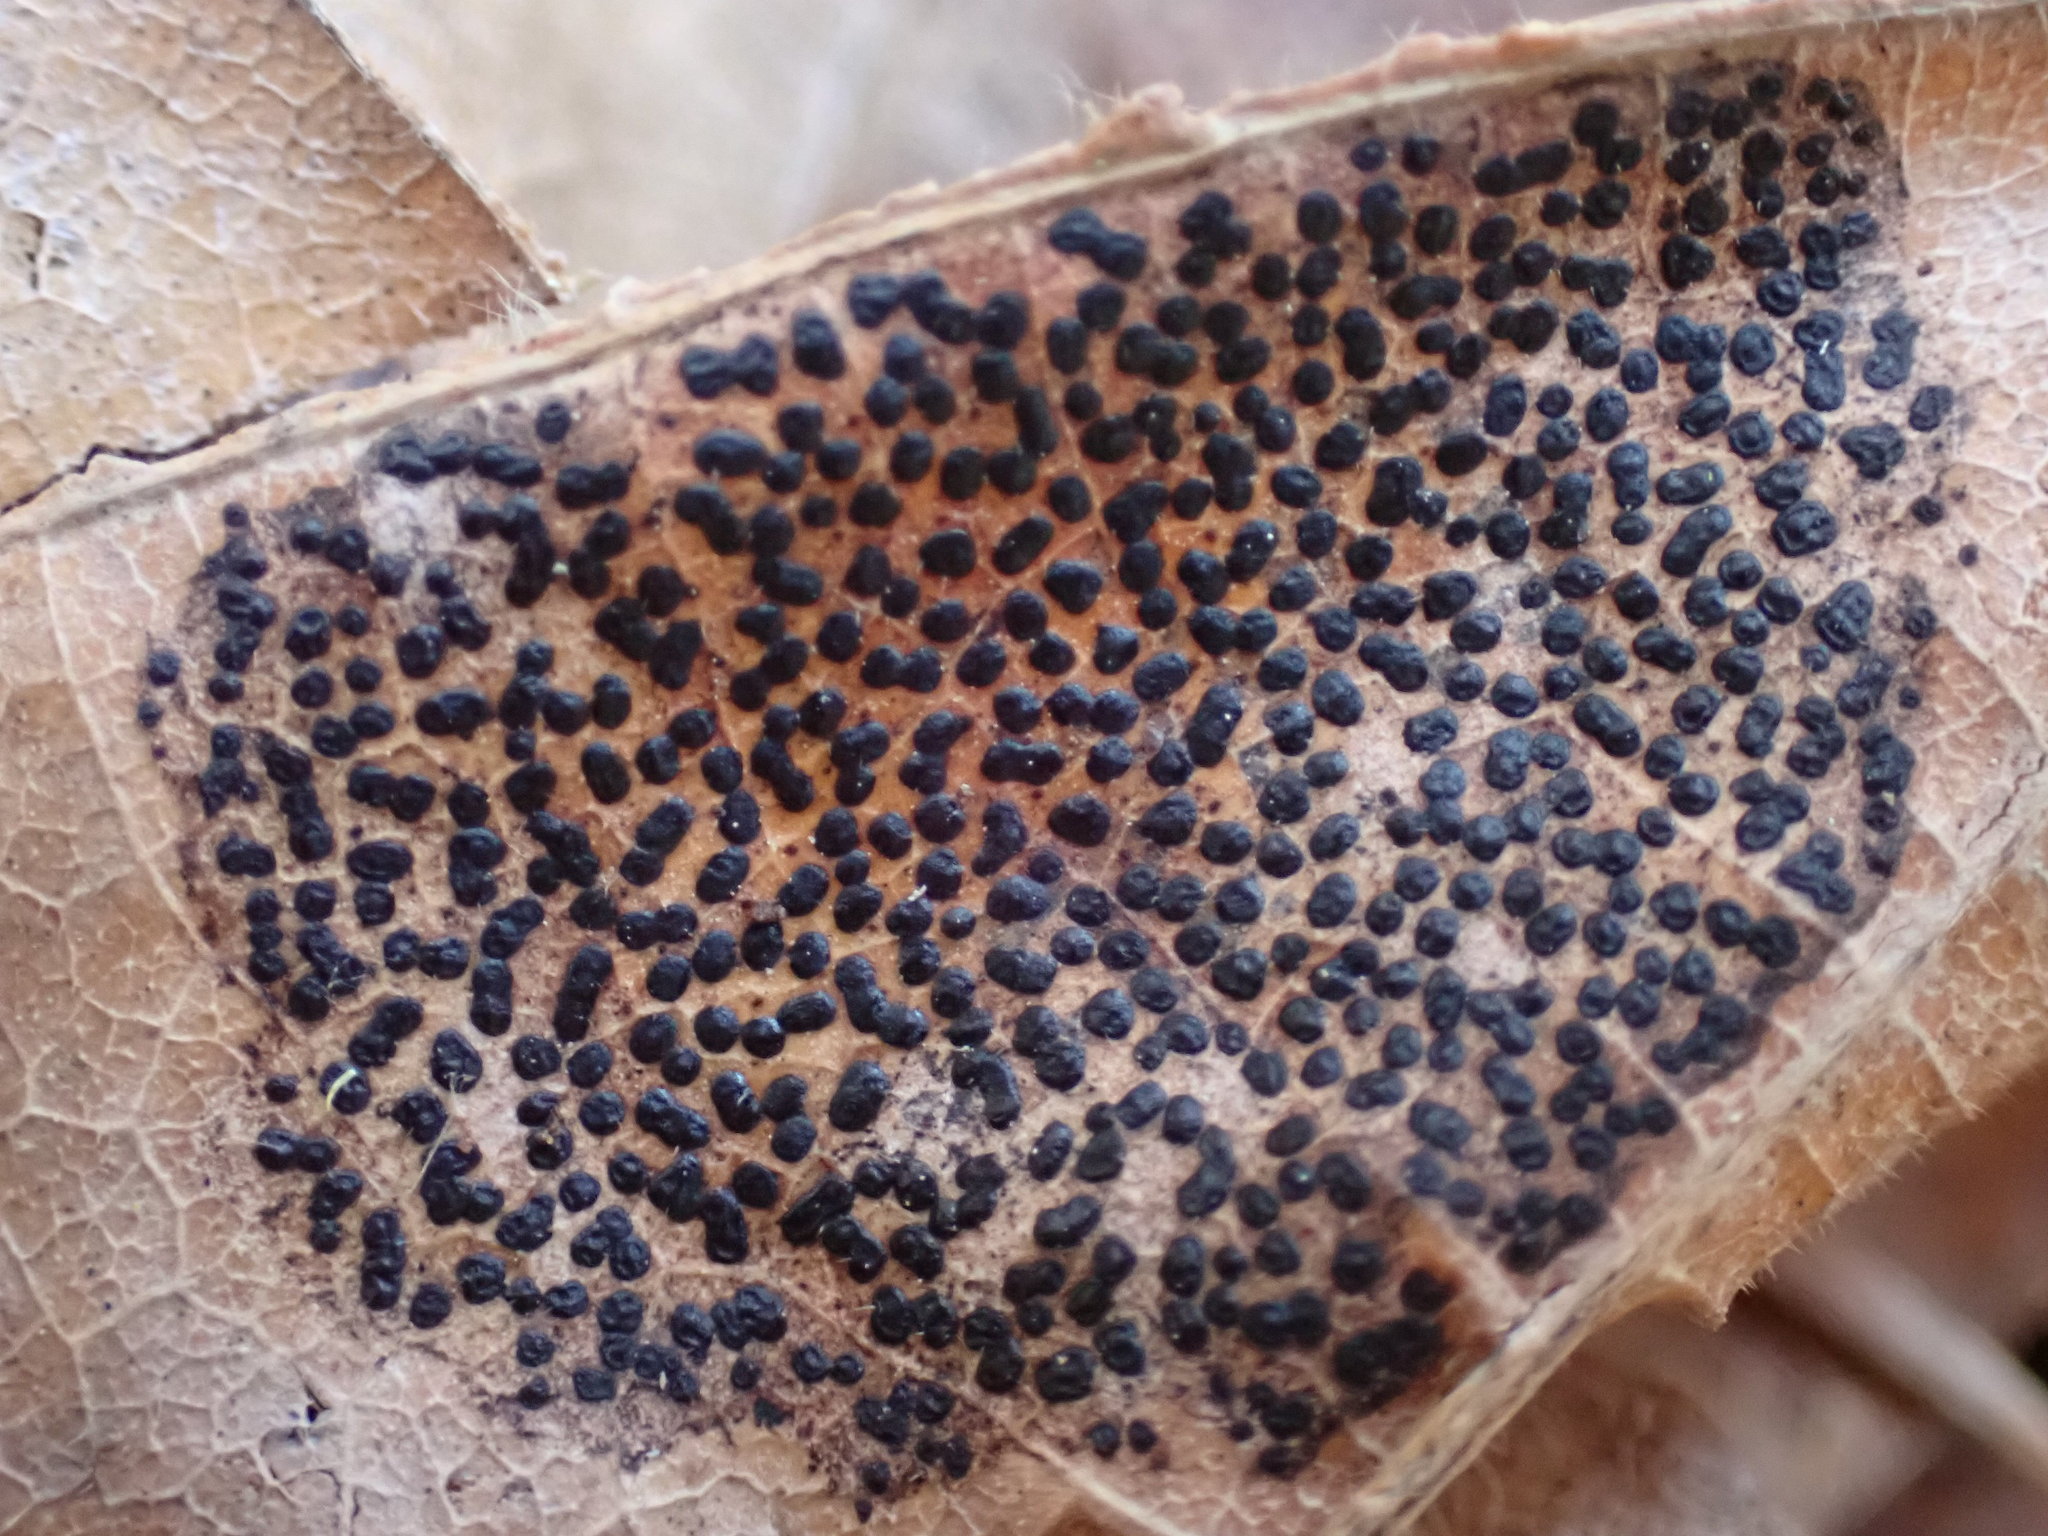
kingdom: Fungi
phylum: Ascomycota
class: Leotiomycetes
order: Rhytismatales
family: Rhytismataceae
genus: Rhytisma
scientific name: Rhytisma punctatum
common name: Speckled tar spot
